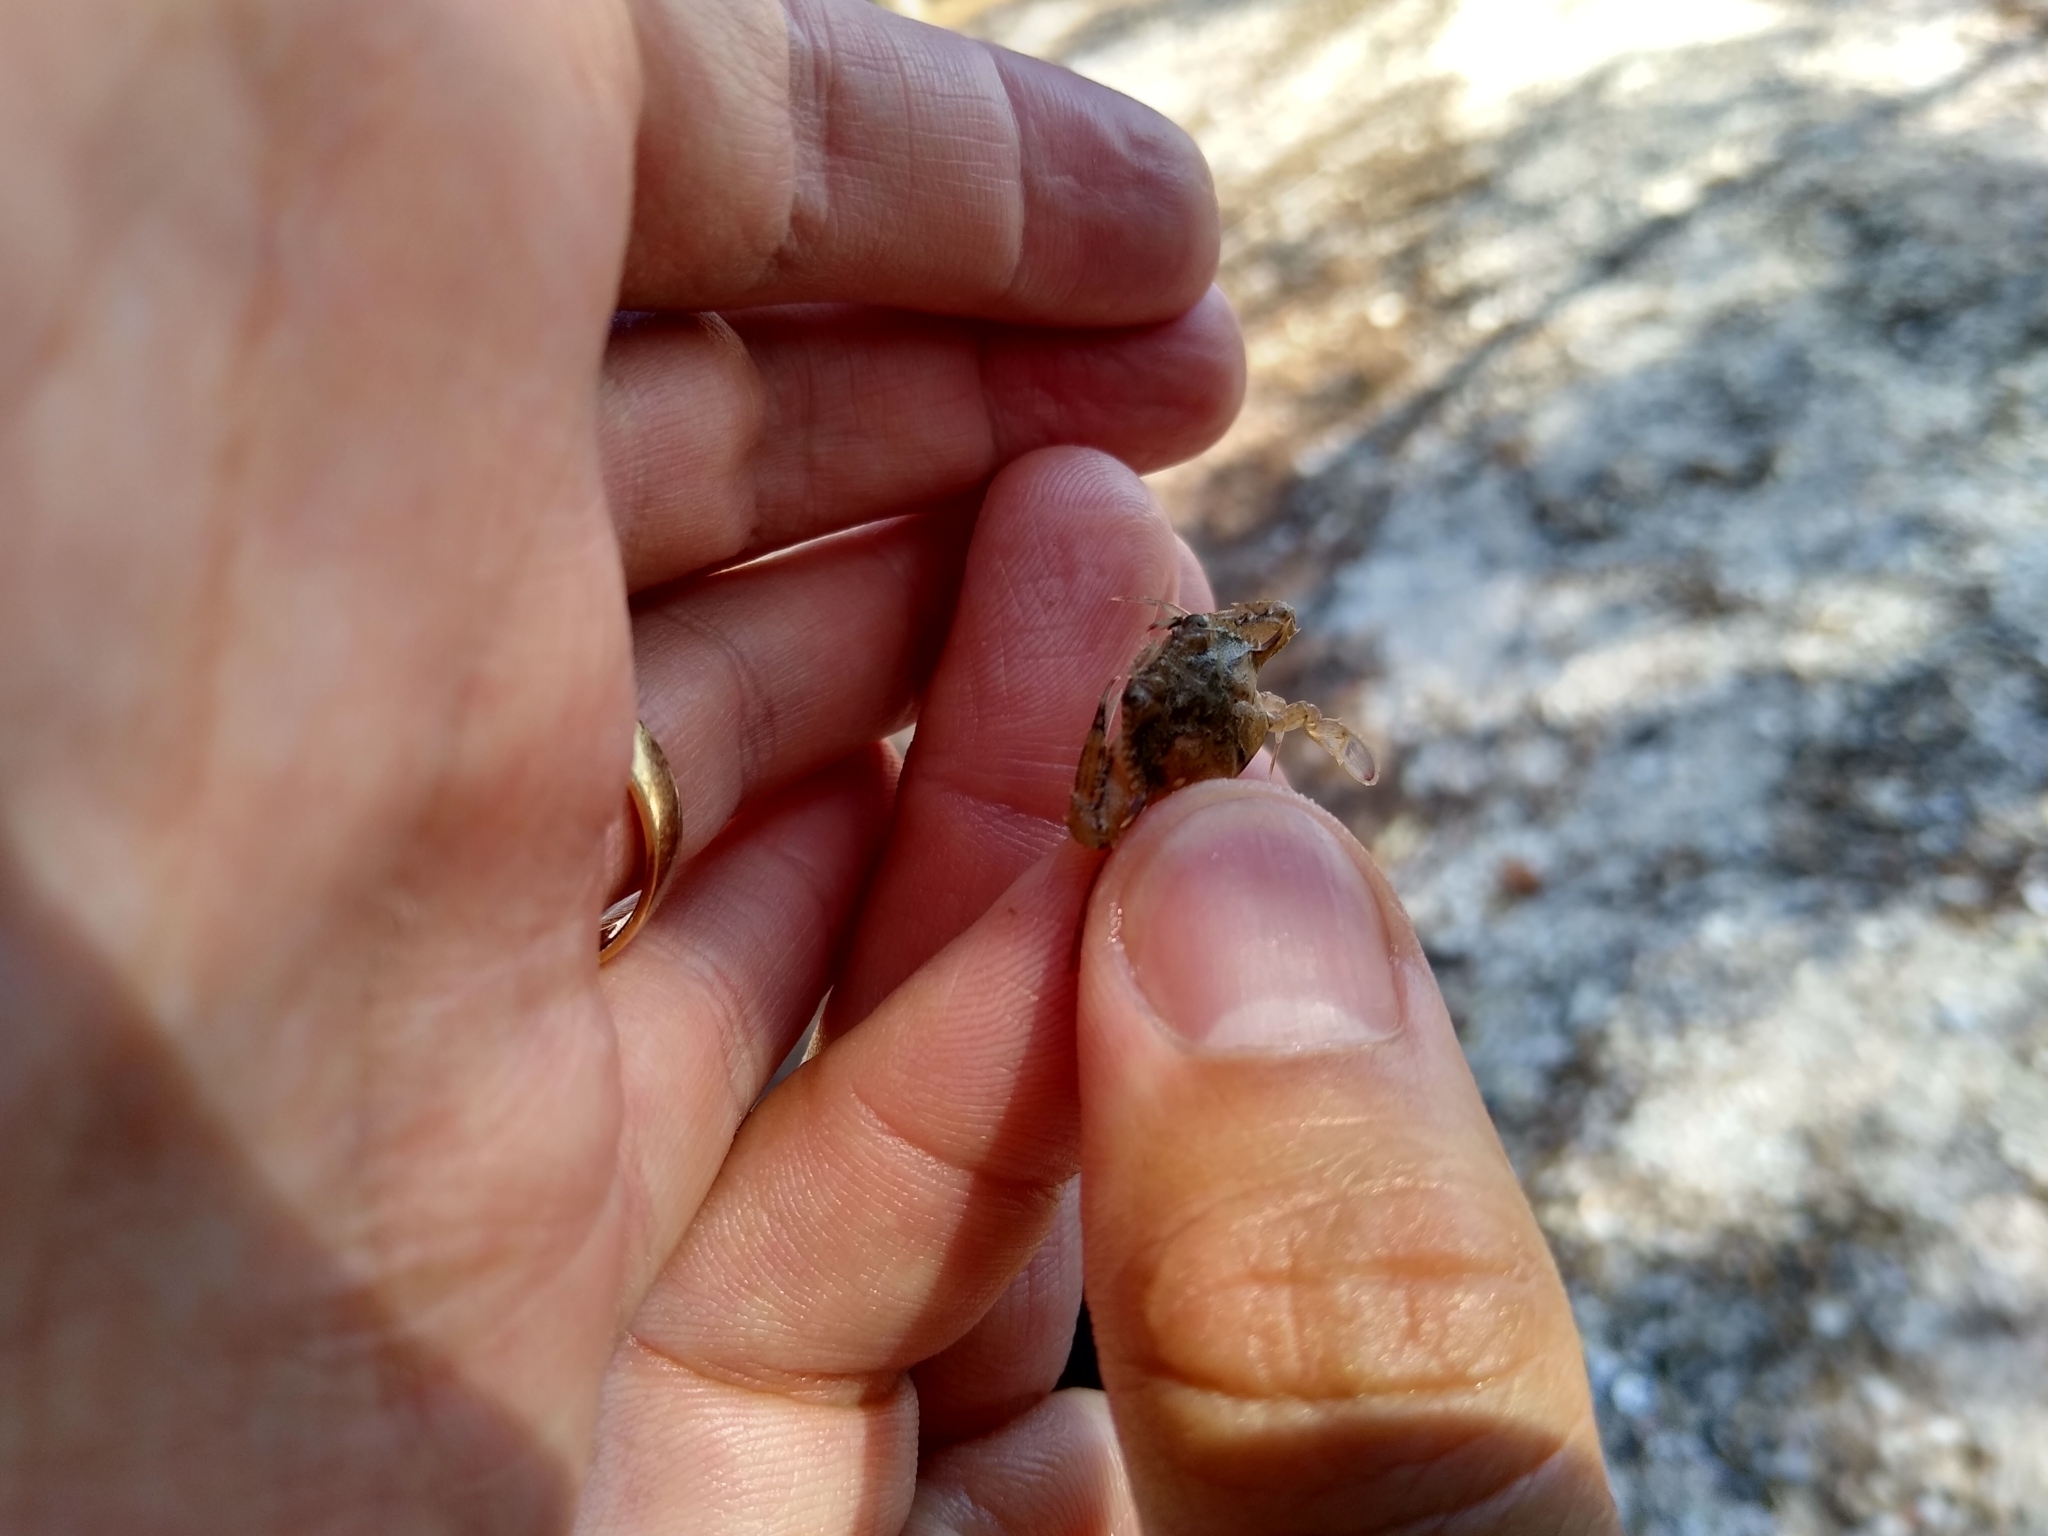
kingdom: Animalia
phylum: Arthropoda
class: Malacostraca
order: Decapoda
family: Portunidae
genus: Achelous
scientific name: Achelous gibbesii
